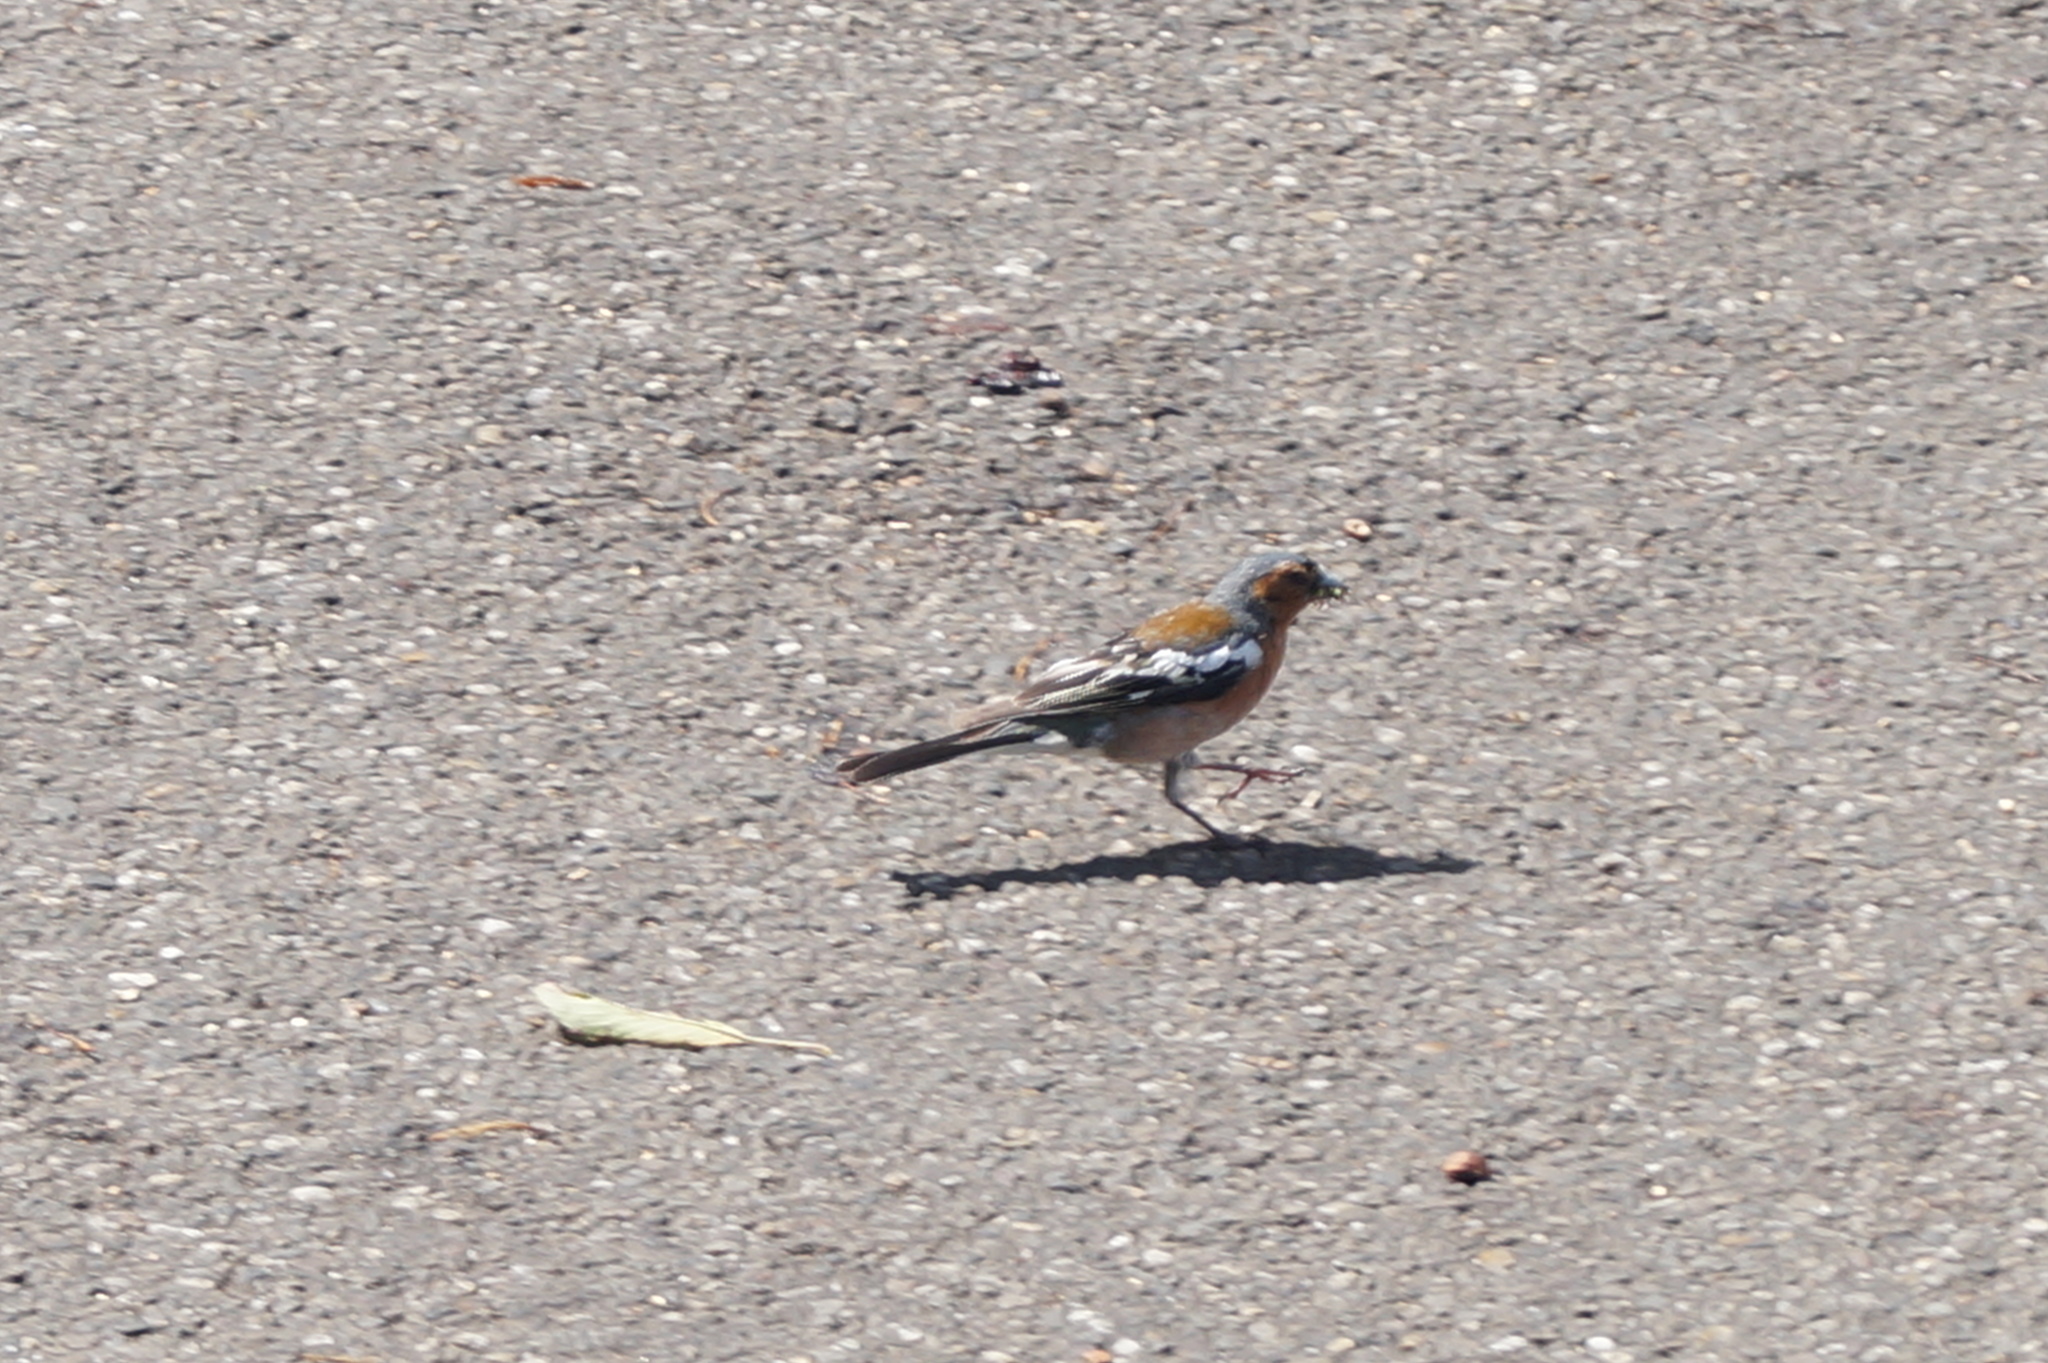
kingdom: Animalia
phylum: Chordata
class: Aves
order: Passeriformes
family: Fringillidae
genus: Fringilla
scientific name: Fringilla coelebs
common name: Common chaffinch
